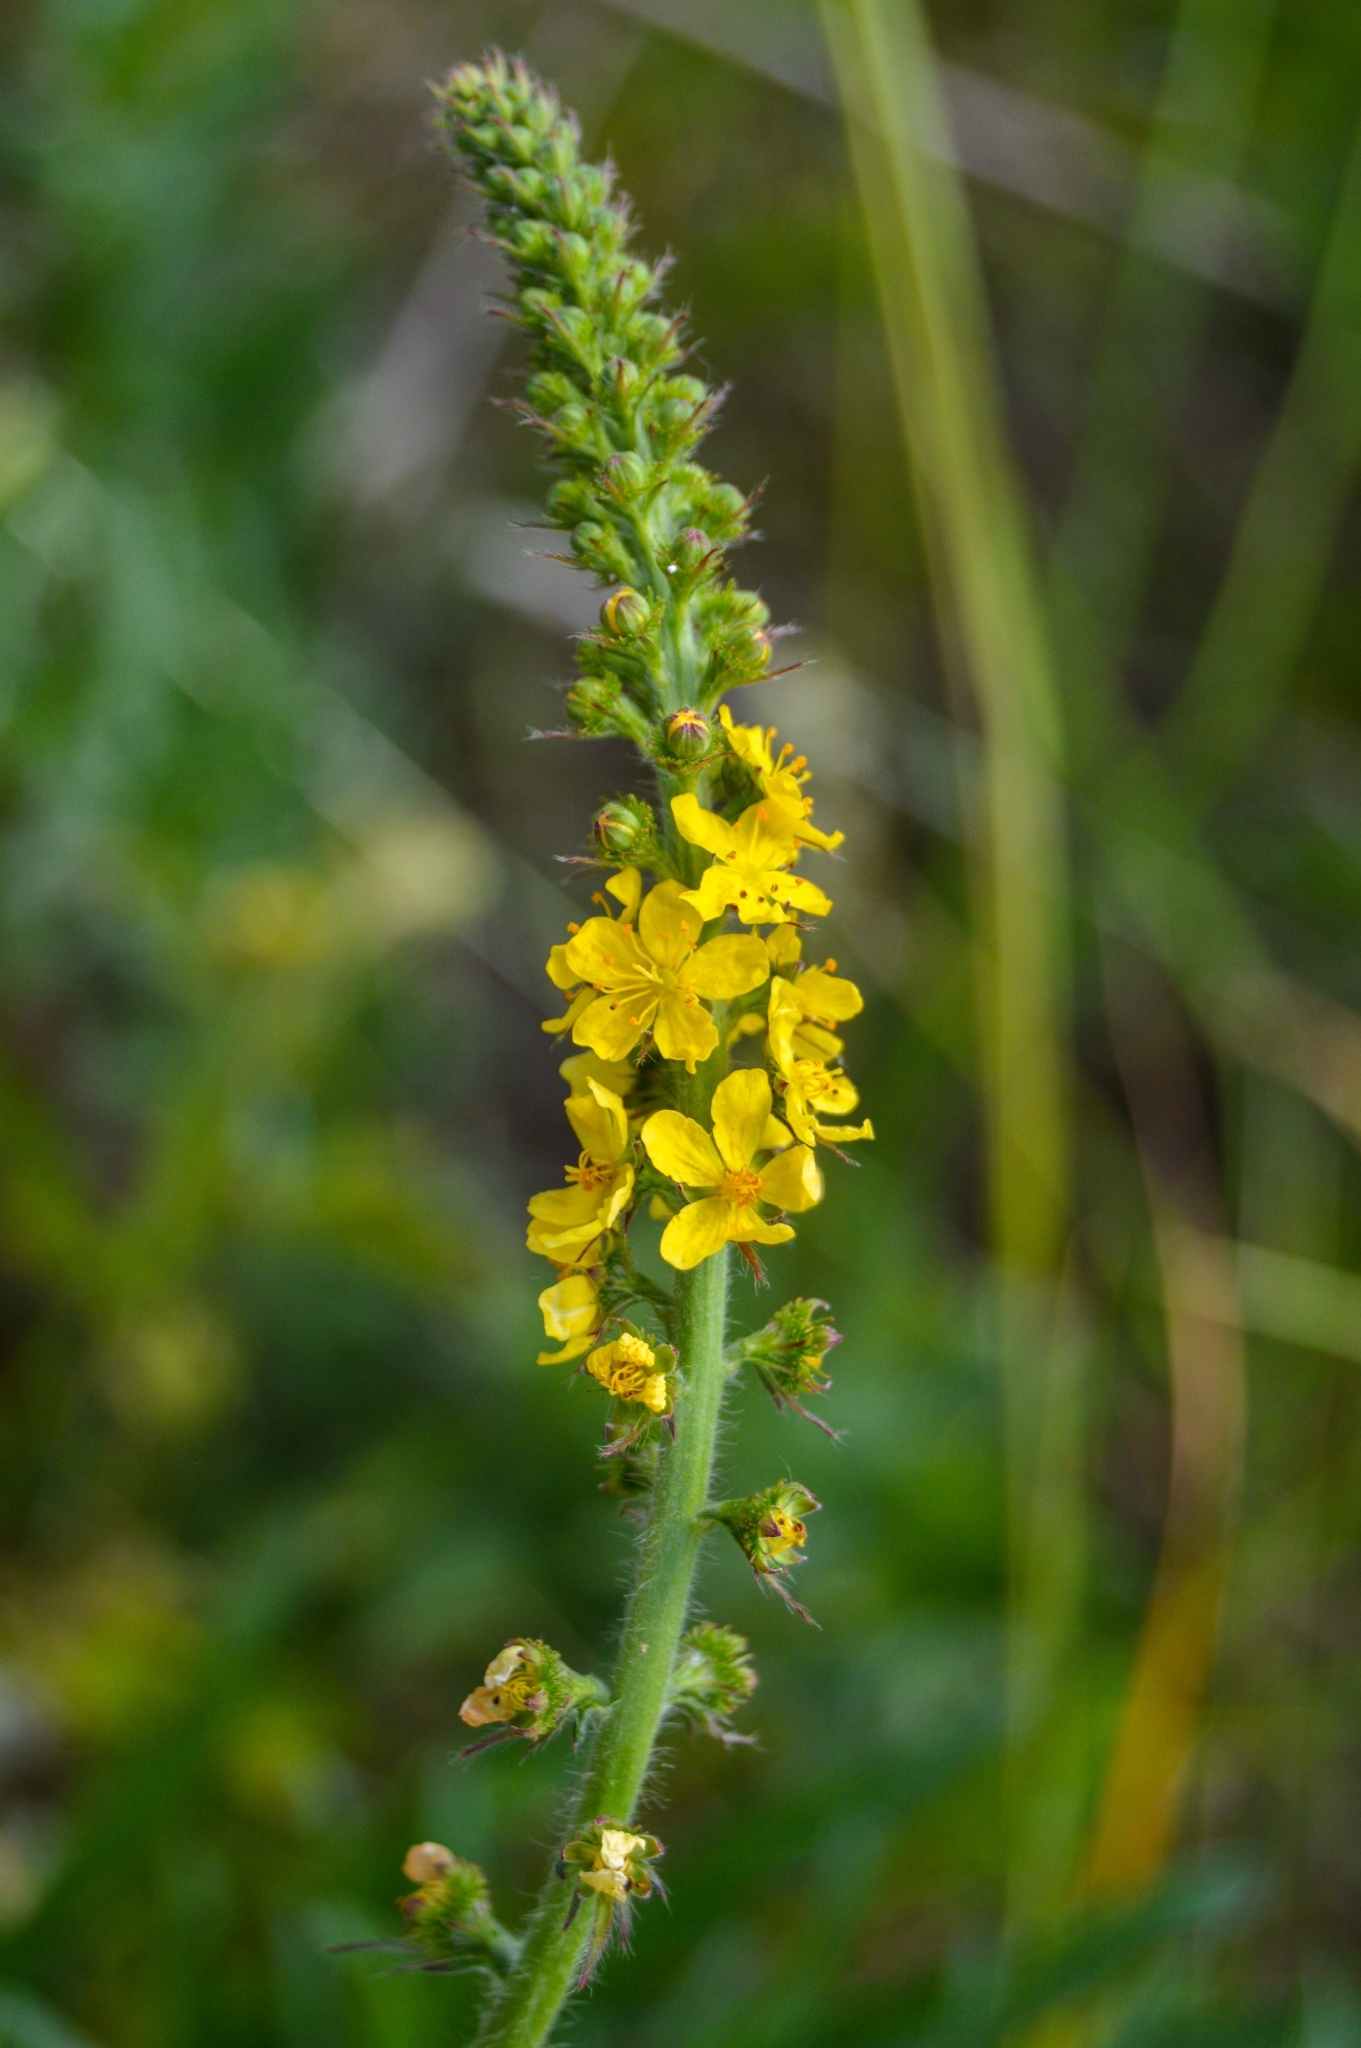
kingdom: Plantae
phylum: Tracheophyta
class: Magnoliopsida
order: Rosales
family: Rosaceae
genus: Agrimonia
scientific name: Agrimonia eupatoria
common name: Agrimony
